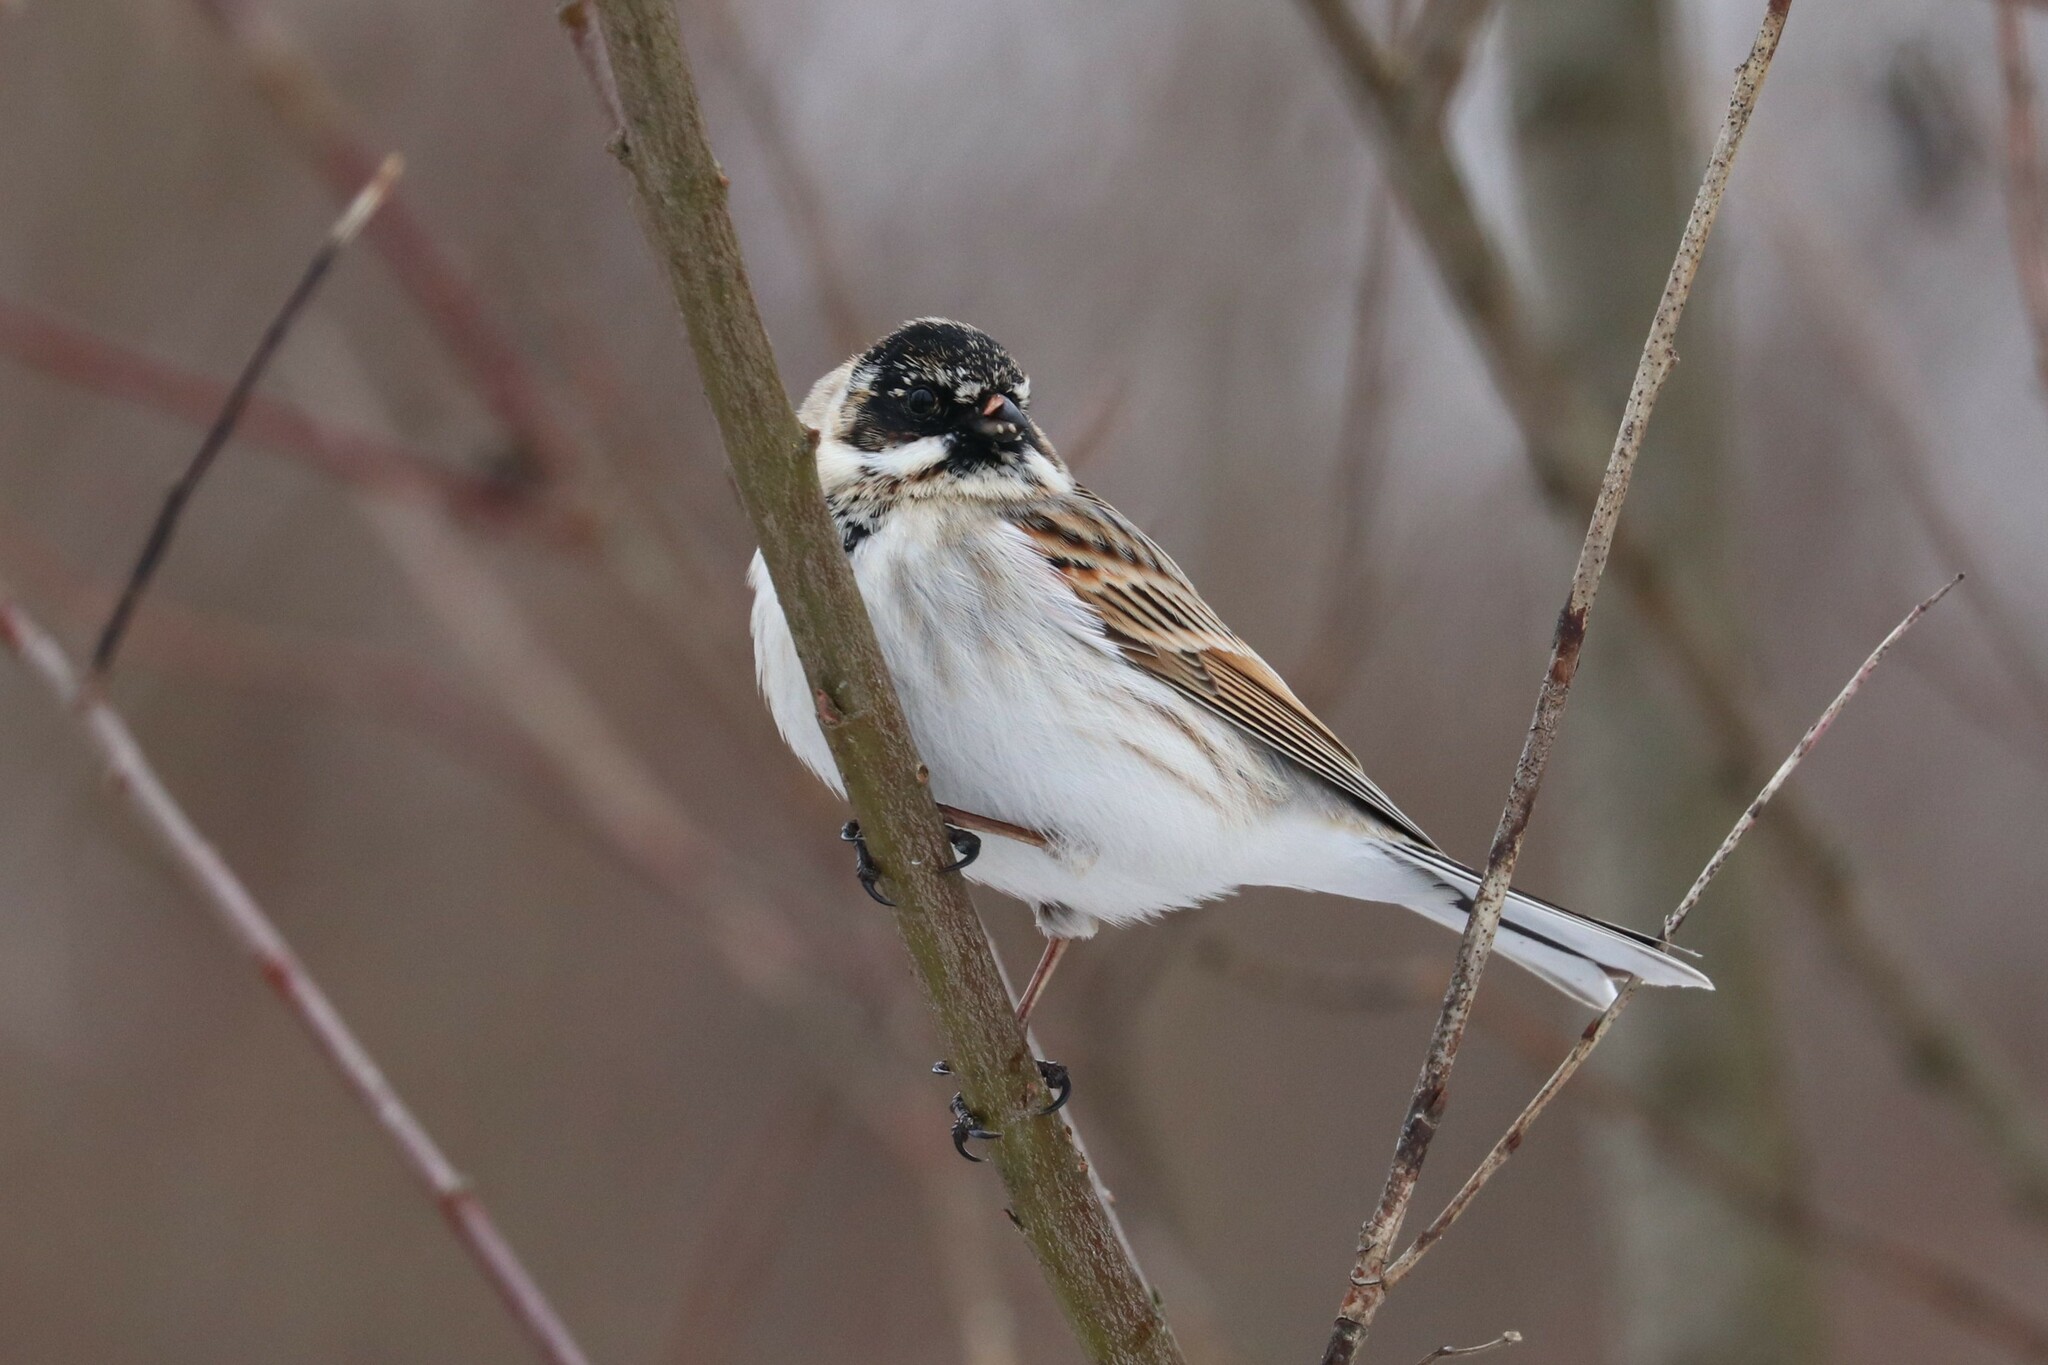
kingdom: Animalia
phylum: Chordata
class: Aves
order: Passeriformes
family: Emberizidae
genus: Emberiza
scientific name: Emberiza schoeniclus
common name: Reed bunting
